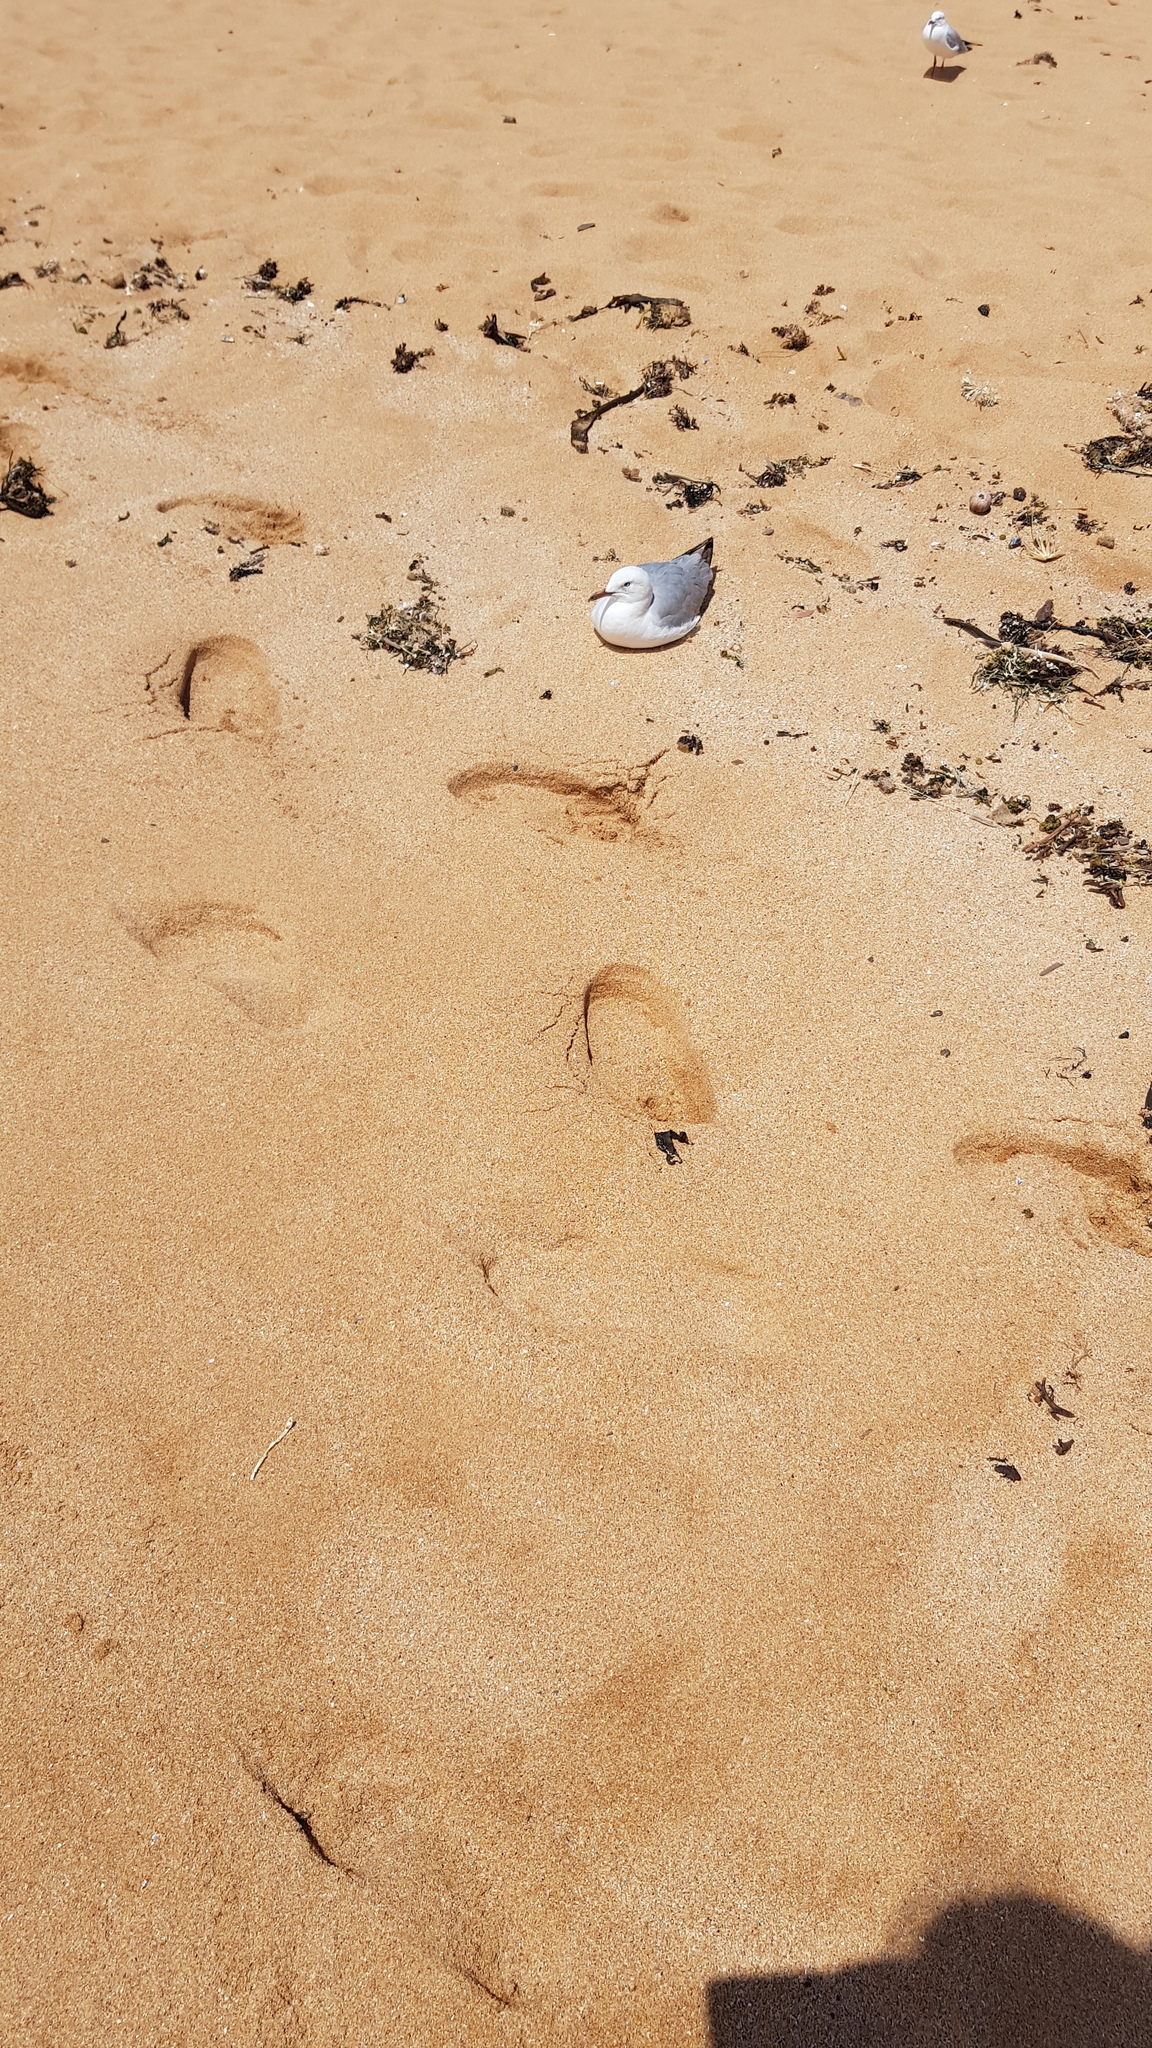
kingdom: Animalia
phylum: Chordata
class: Aves
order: Charadriiformes
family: Laridae
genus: Chroicocephalus
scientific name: Chroicocephalus novaehollandiae
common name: Silver gull
